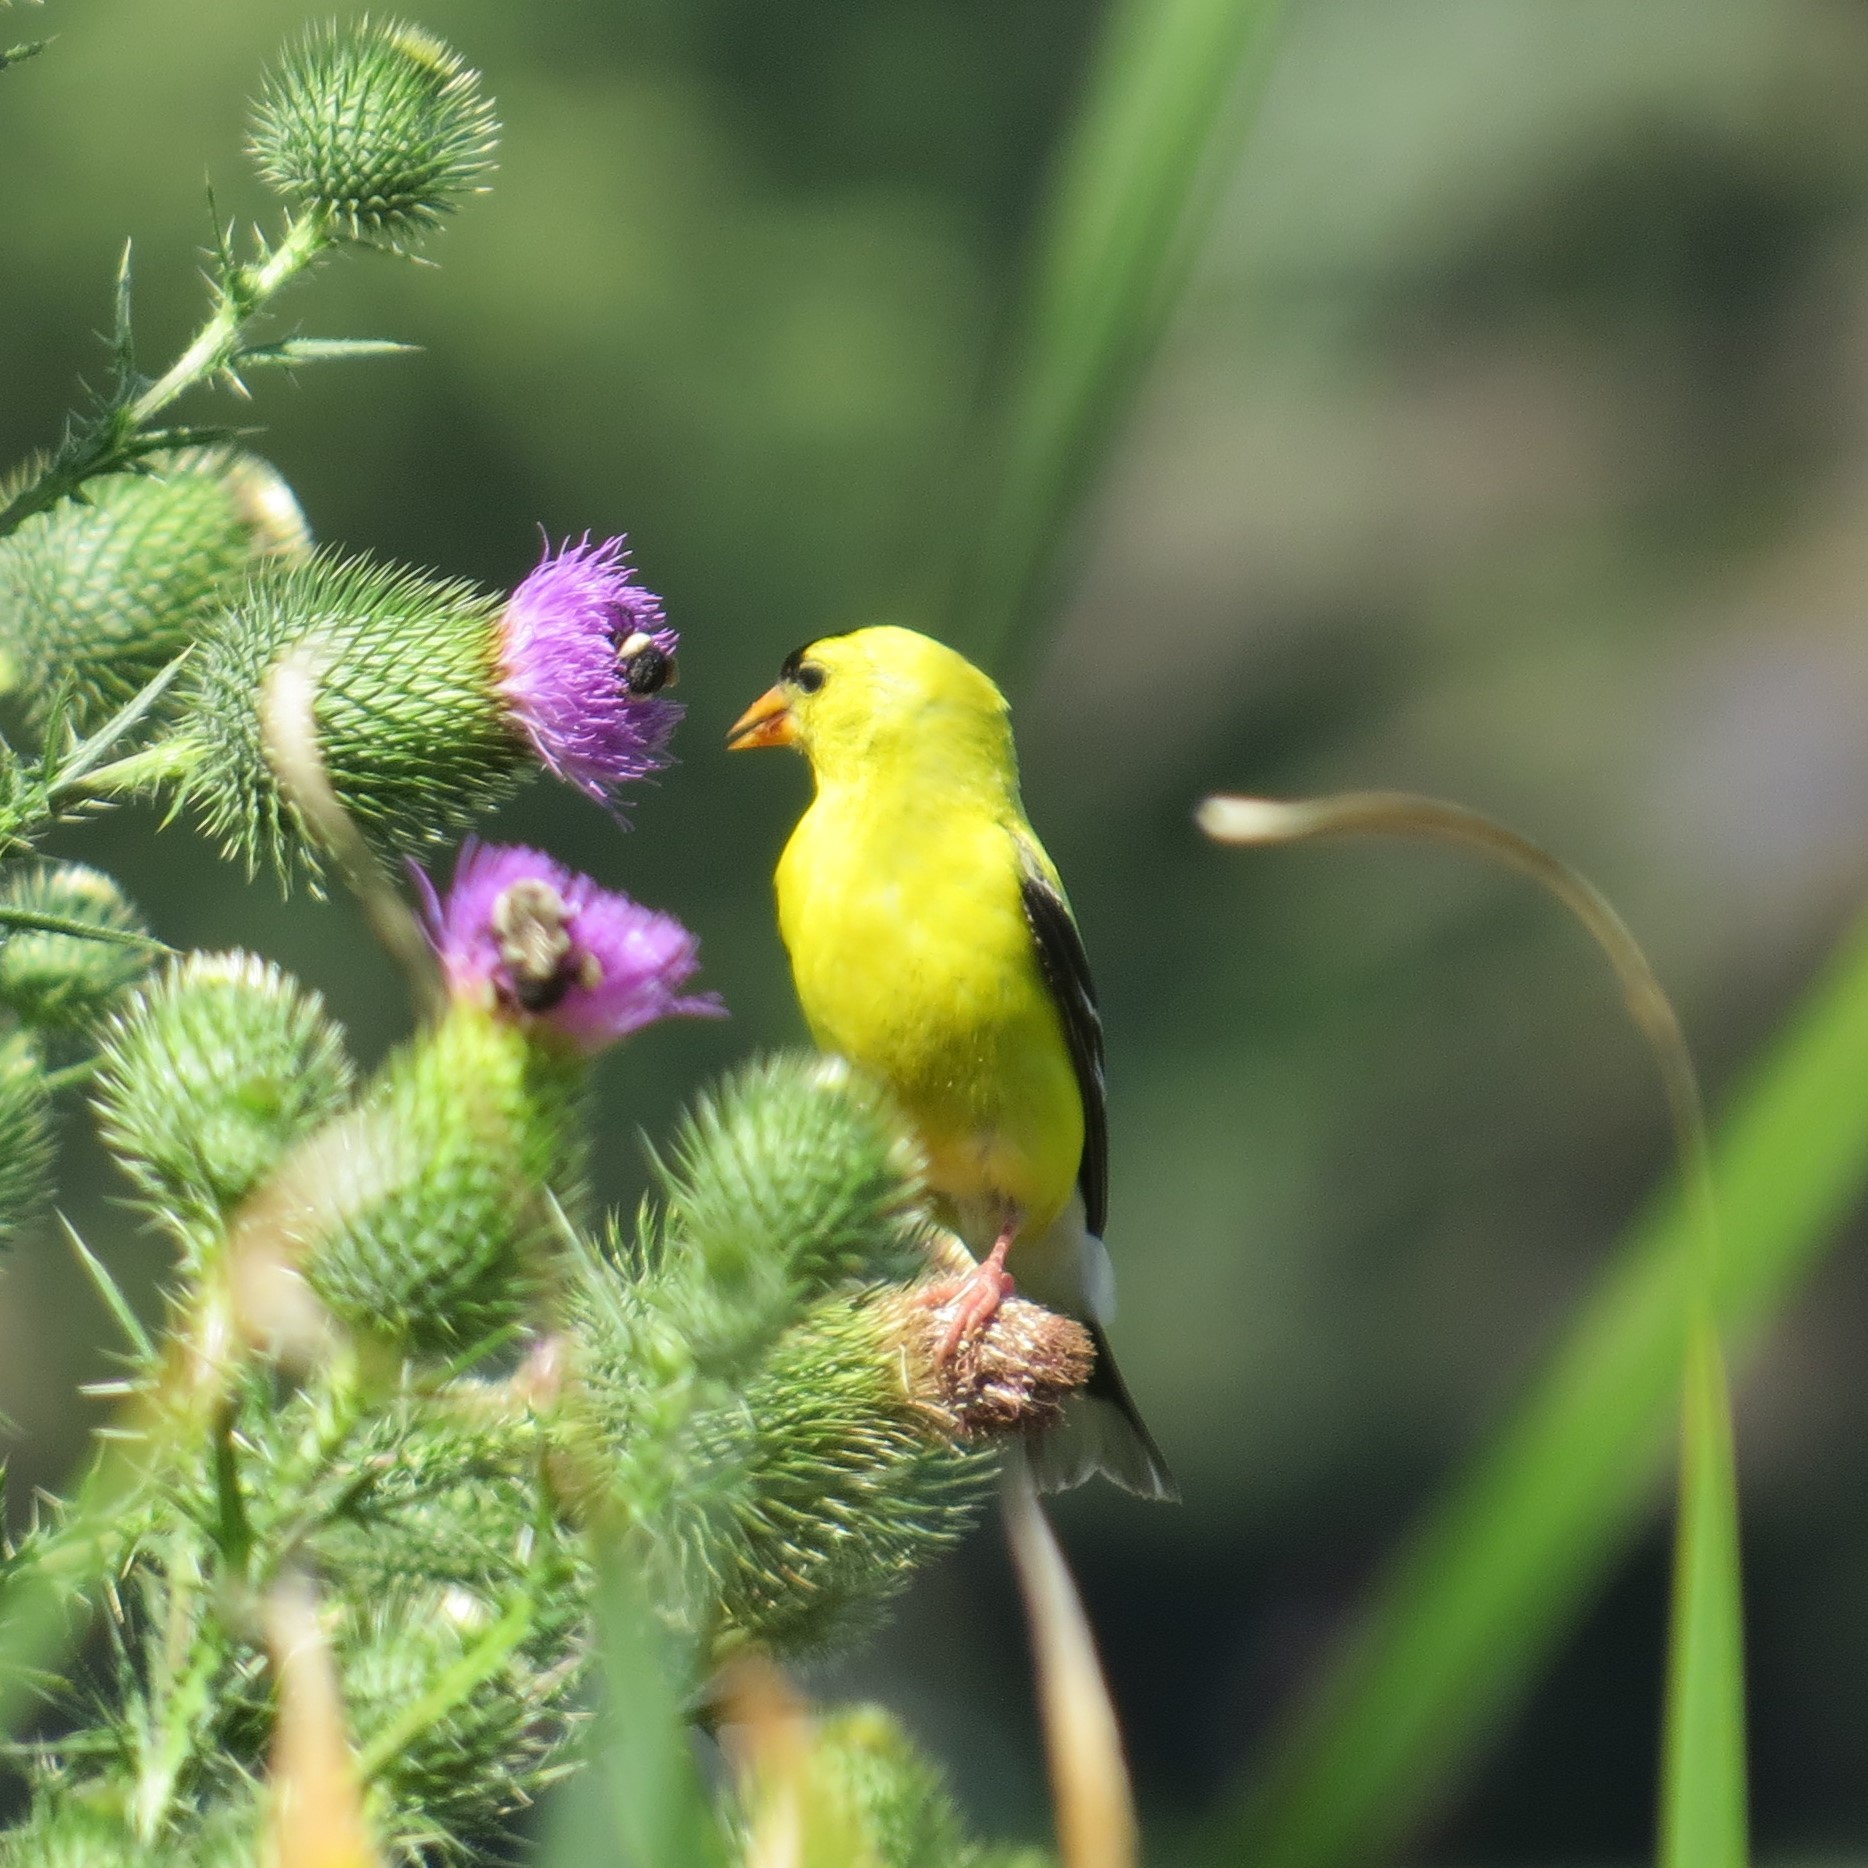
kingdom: Animalia
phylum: Chordata
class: Aves
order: Passeriformes
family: Fringillidae
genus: Spinus
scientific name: Spinus tristis
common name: American goldfinch
